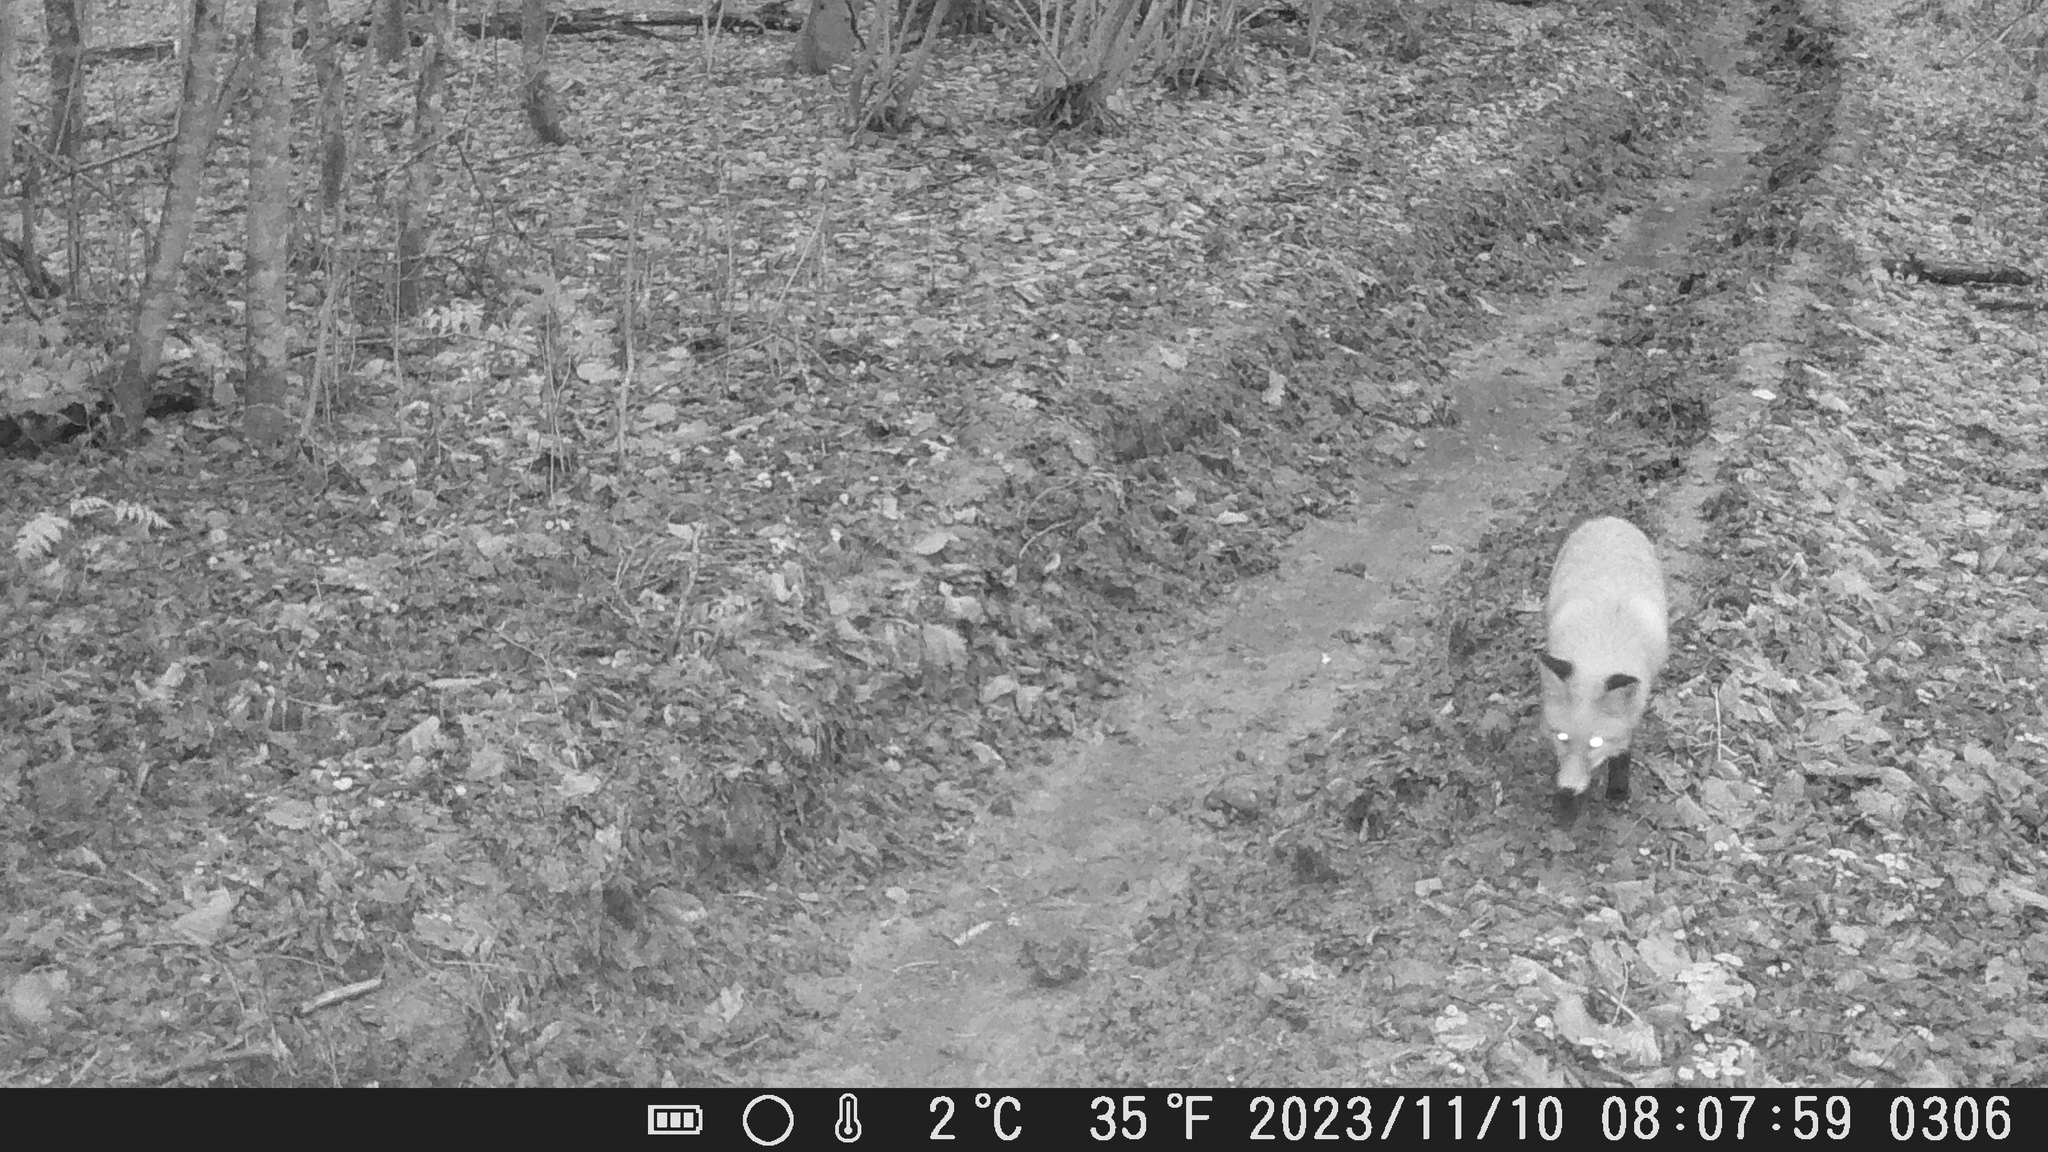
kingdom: Animalia
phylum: Chordata
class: Mammalia
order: Carnivora
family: Canidae
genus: Vulpes
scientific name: Vulpes vulpes
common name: Red fox
